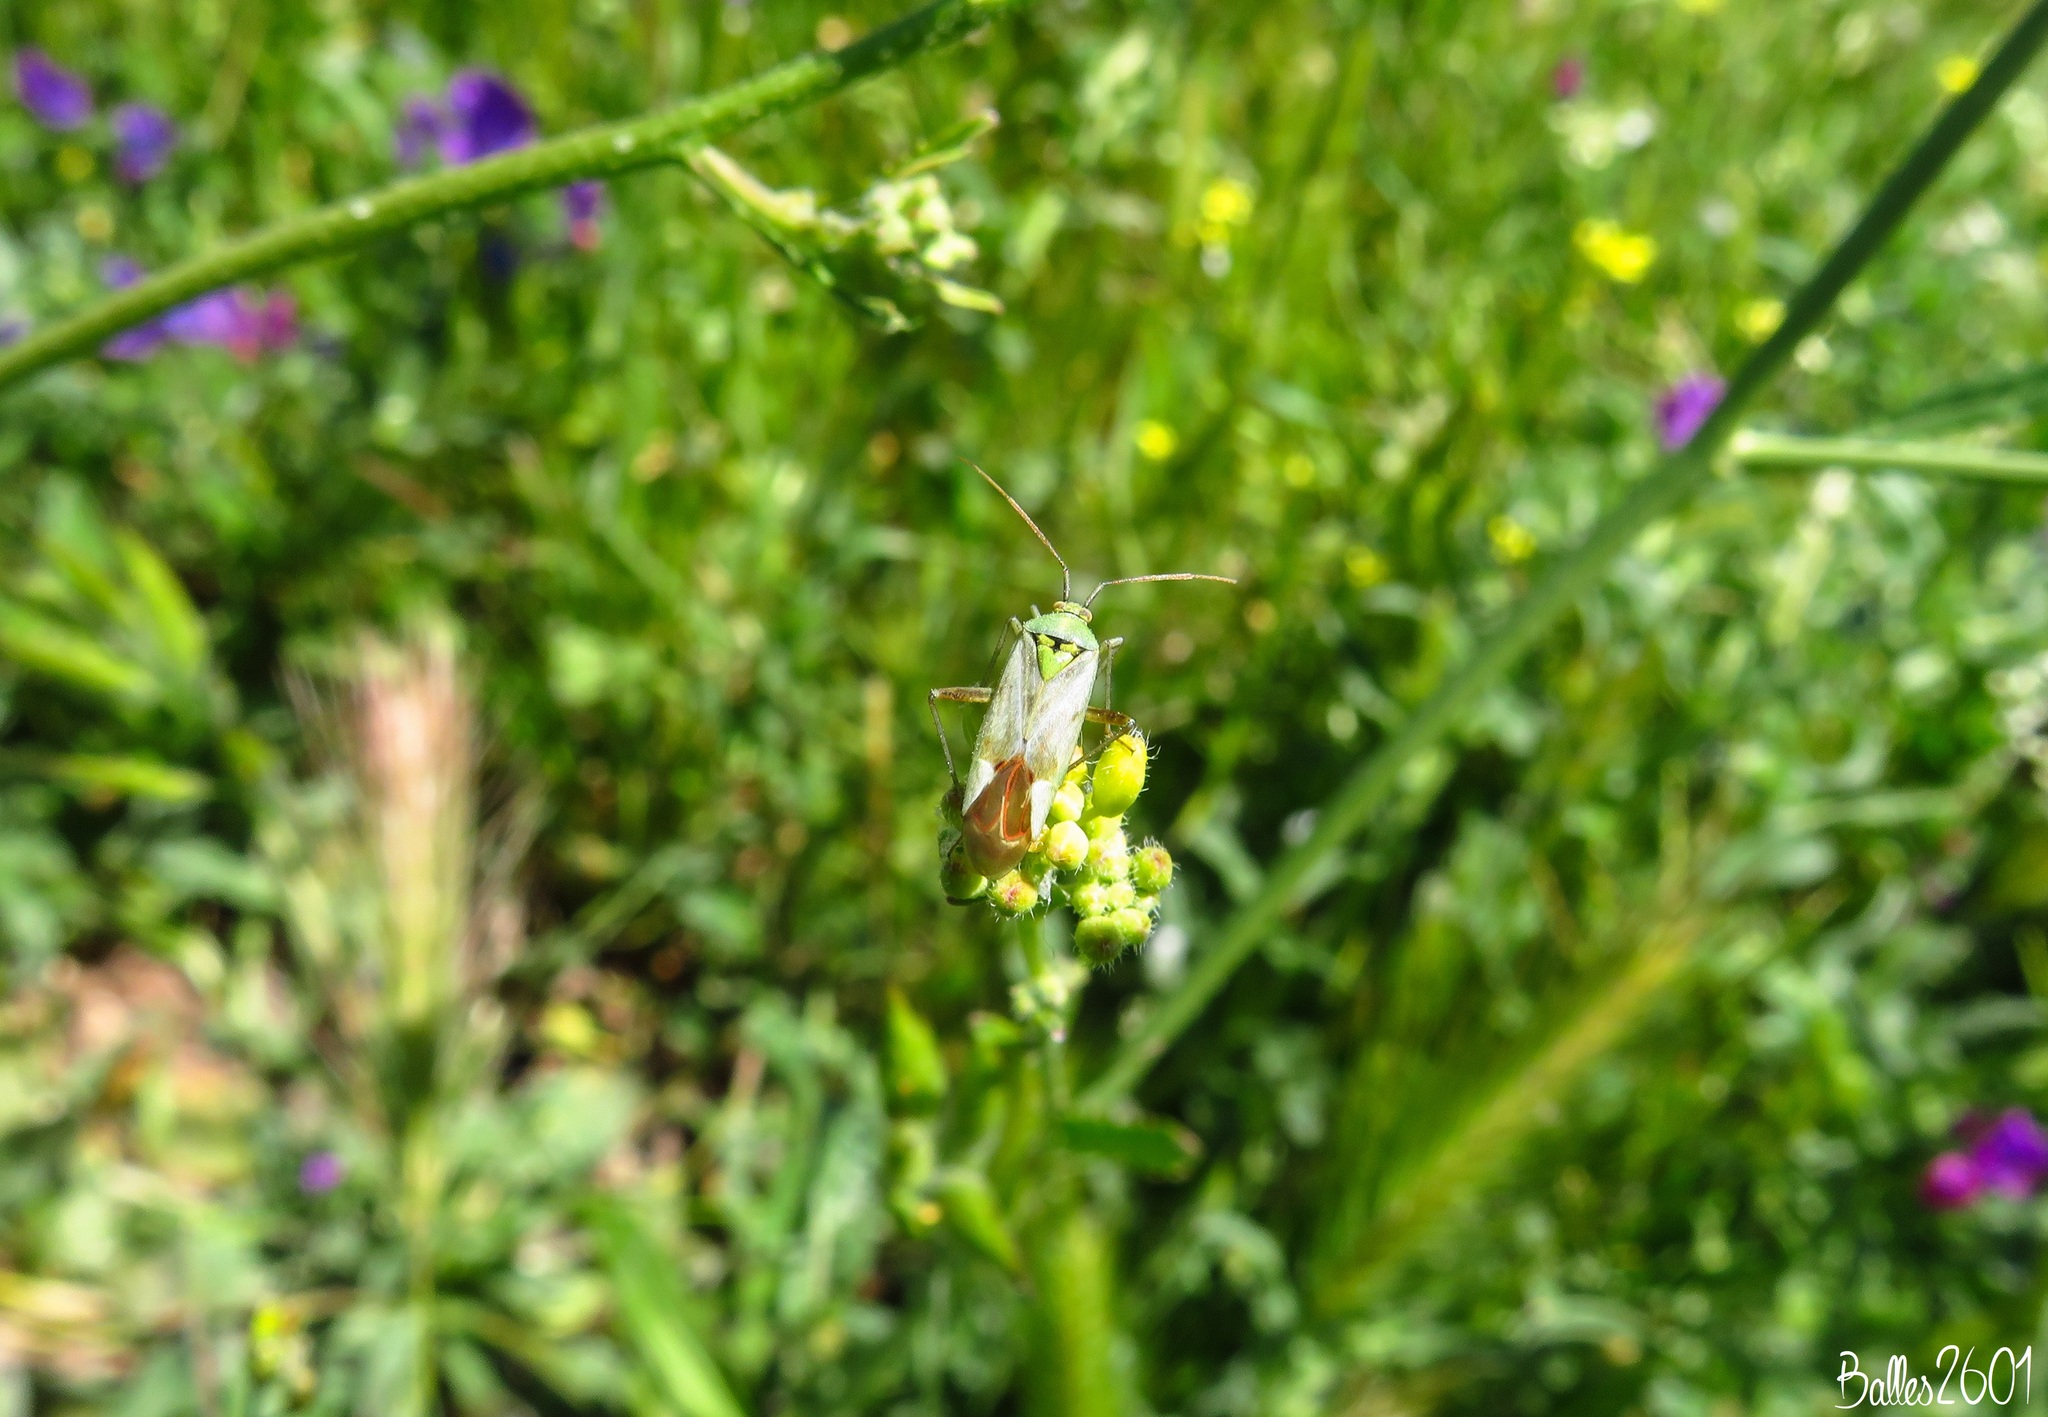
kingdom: Animalia
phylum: Arthropoda
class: Insecta
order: Hemiptera
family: Miridae
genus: Reuterista
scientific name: Reuterista instabilis
